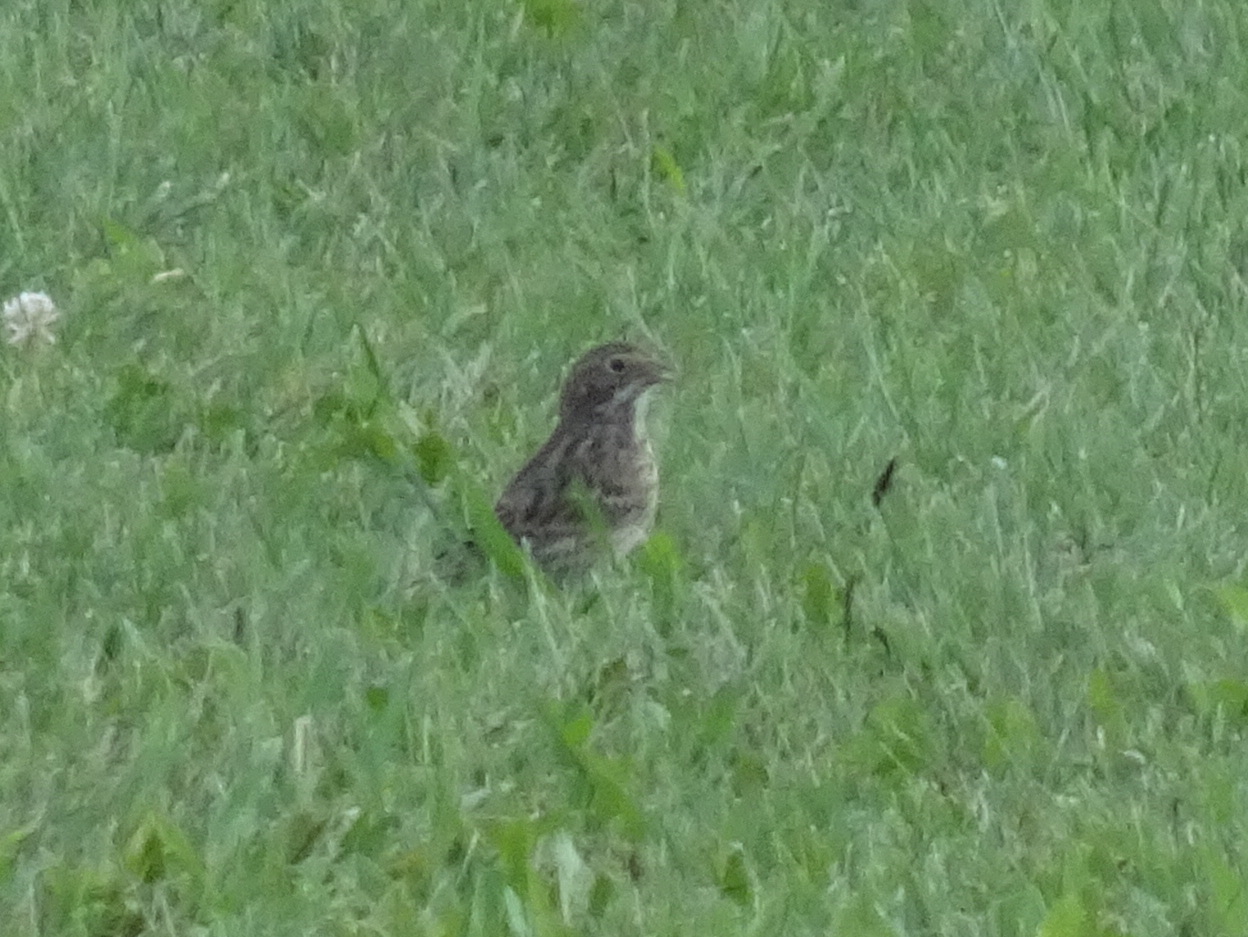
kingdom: Animalia
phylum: Chordata
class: Aves
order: Passeriformes
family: Passerellidae
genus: Pooecetes
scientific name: Pooecetes gramineus
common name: Vesper sparrow
